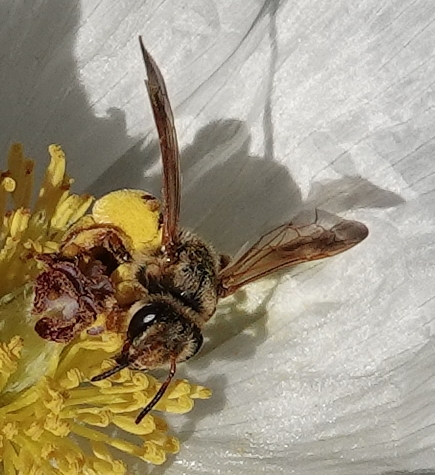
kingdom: Animalia
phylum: Arthropoda
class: Insecta
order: Hymenoptera
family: Andrenidae
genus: Andrena
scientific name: Andrena prunorum
